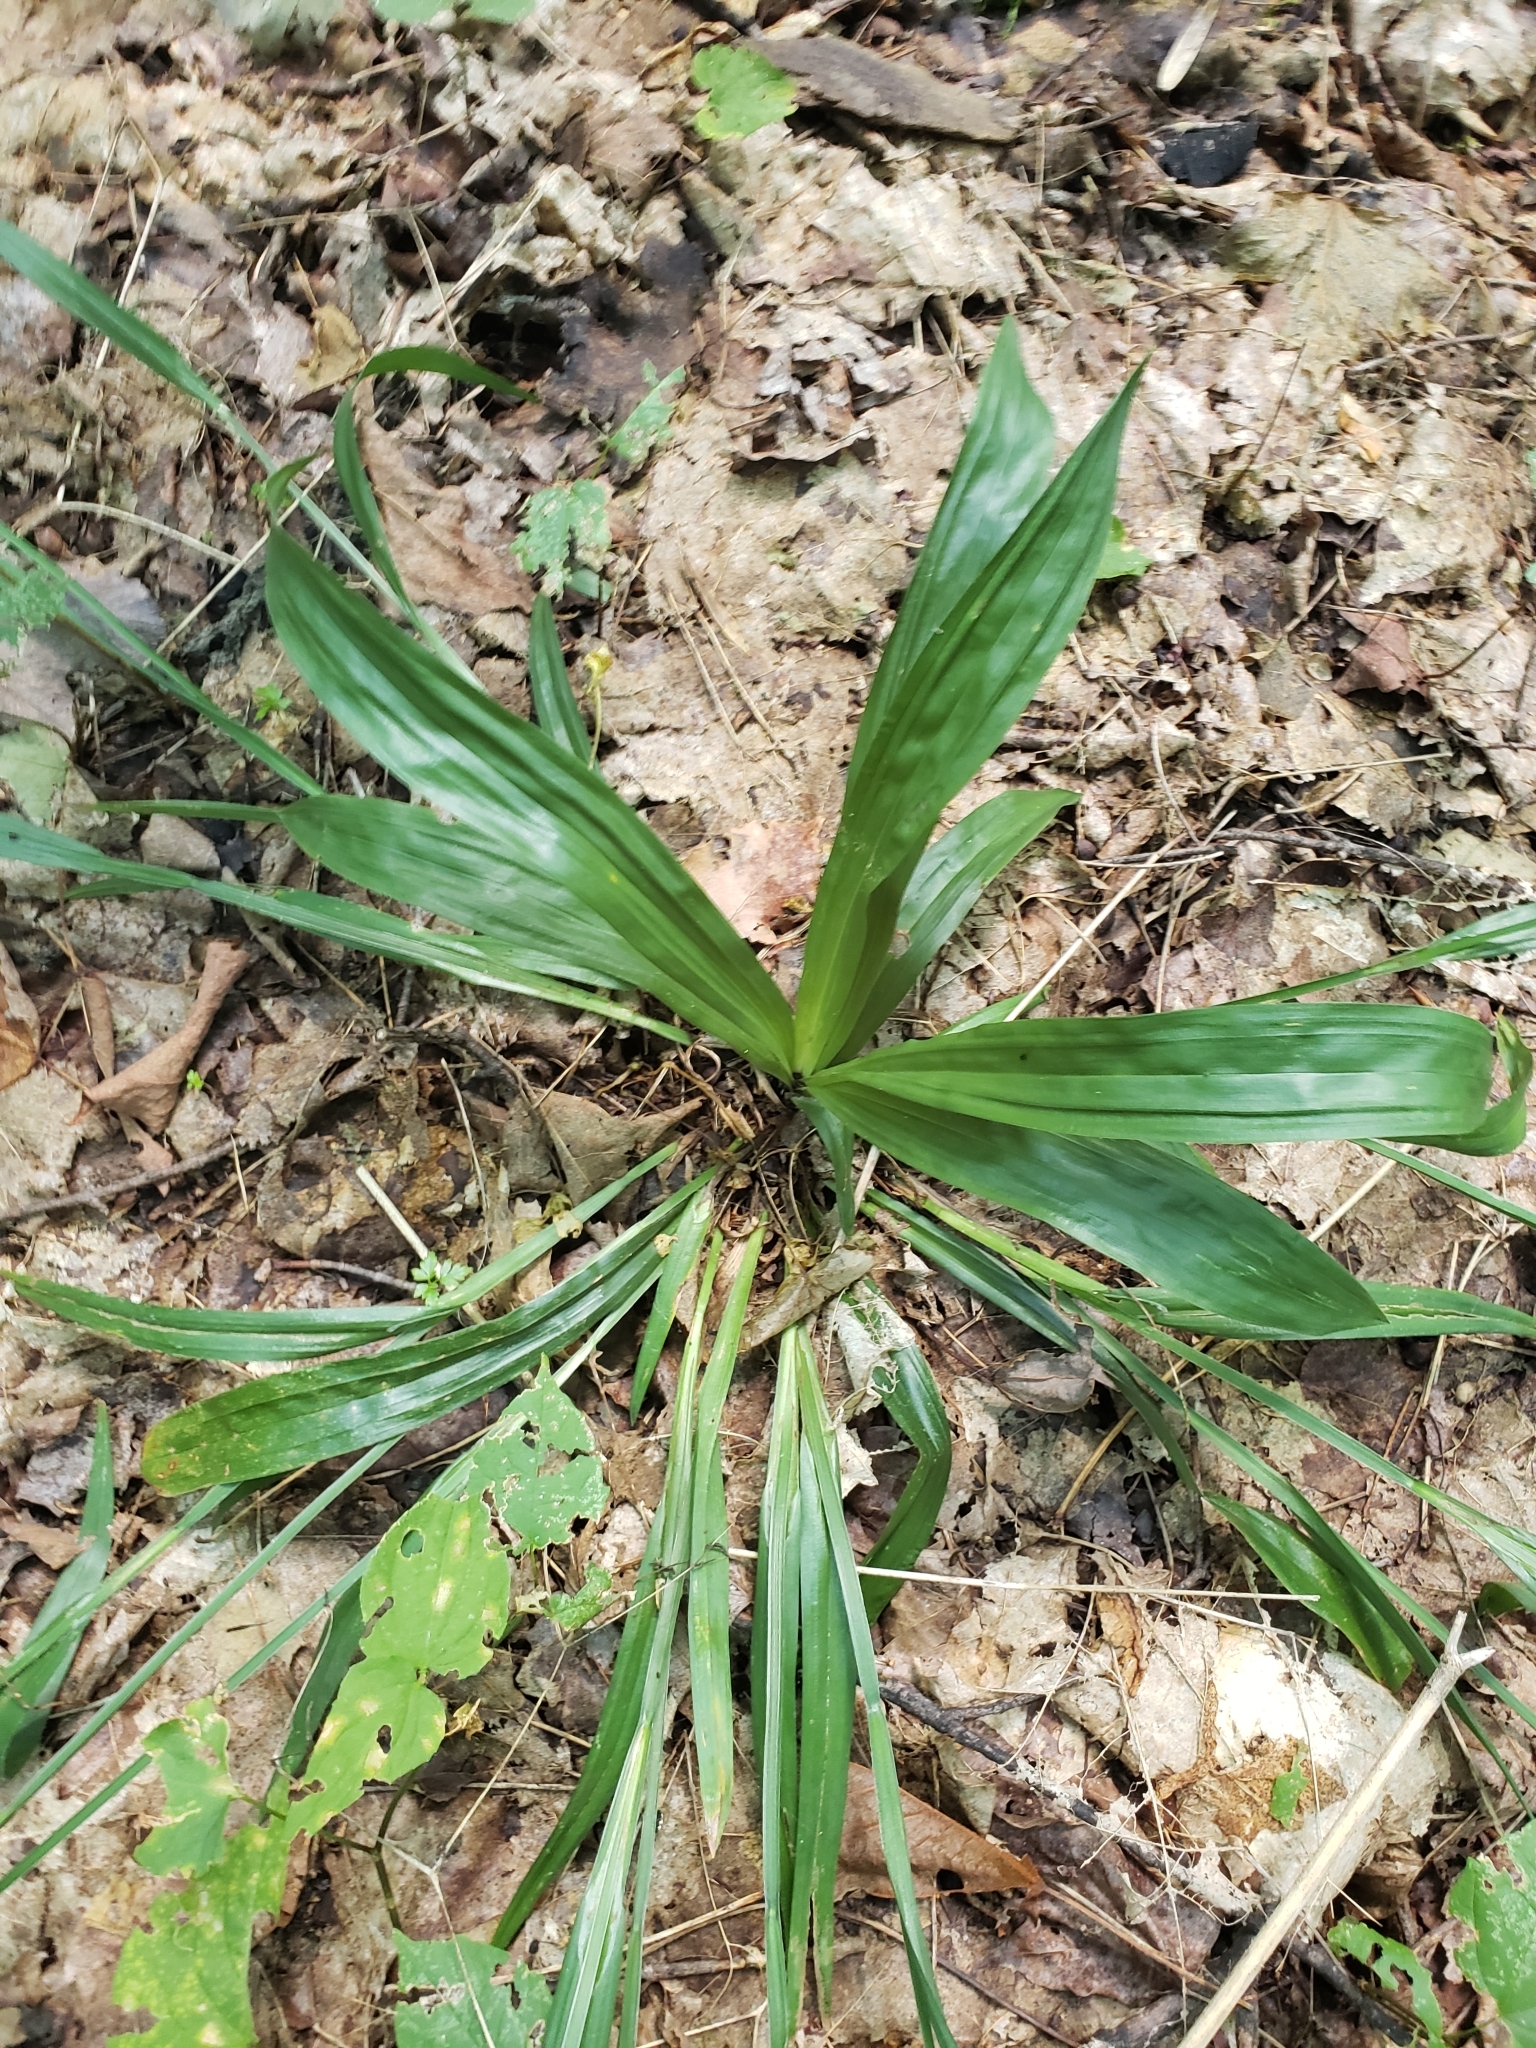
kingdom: Plantae
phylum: Tracheophyta
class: Liliopsida
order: Poales
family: Cyperaceae
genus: Carex
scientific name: Carex albursina
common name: Blunt-scale wood sedge
